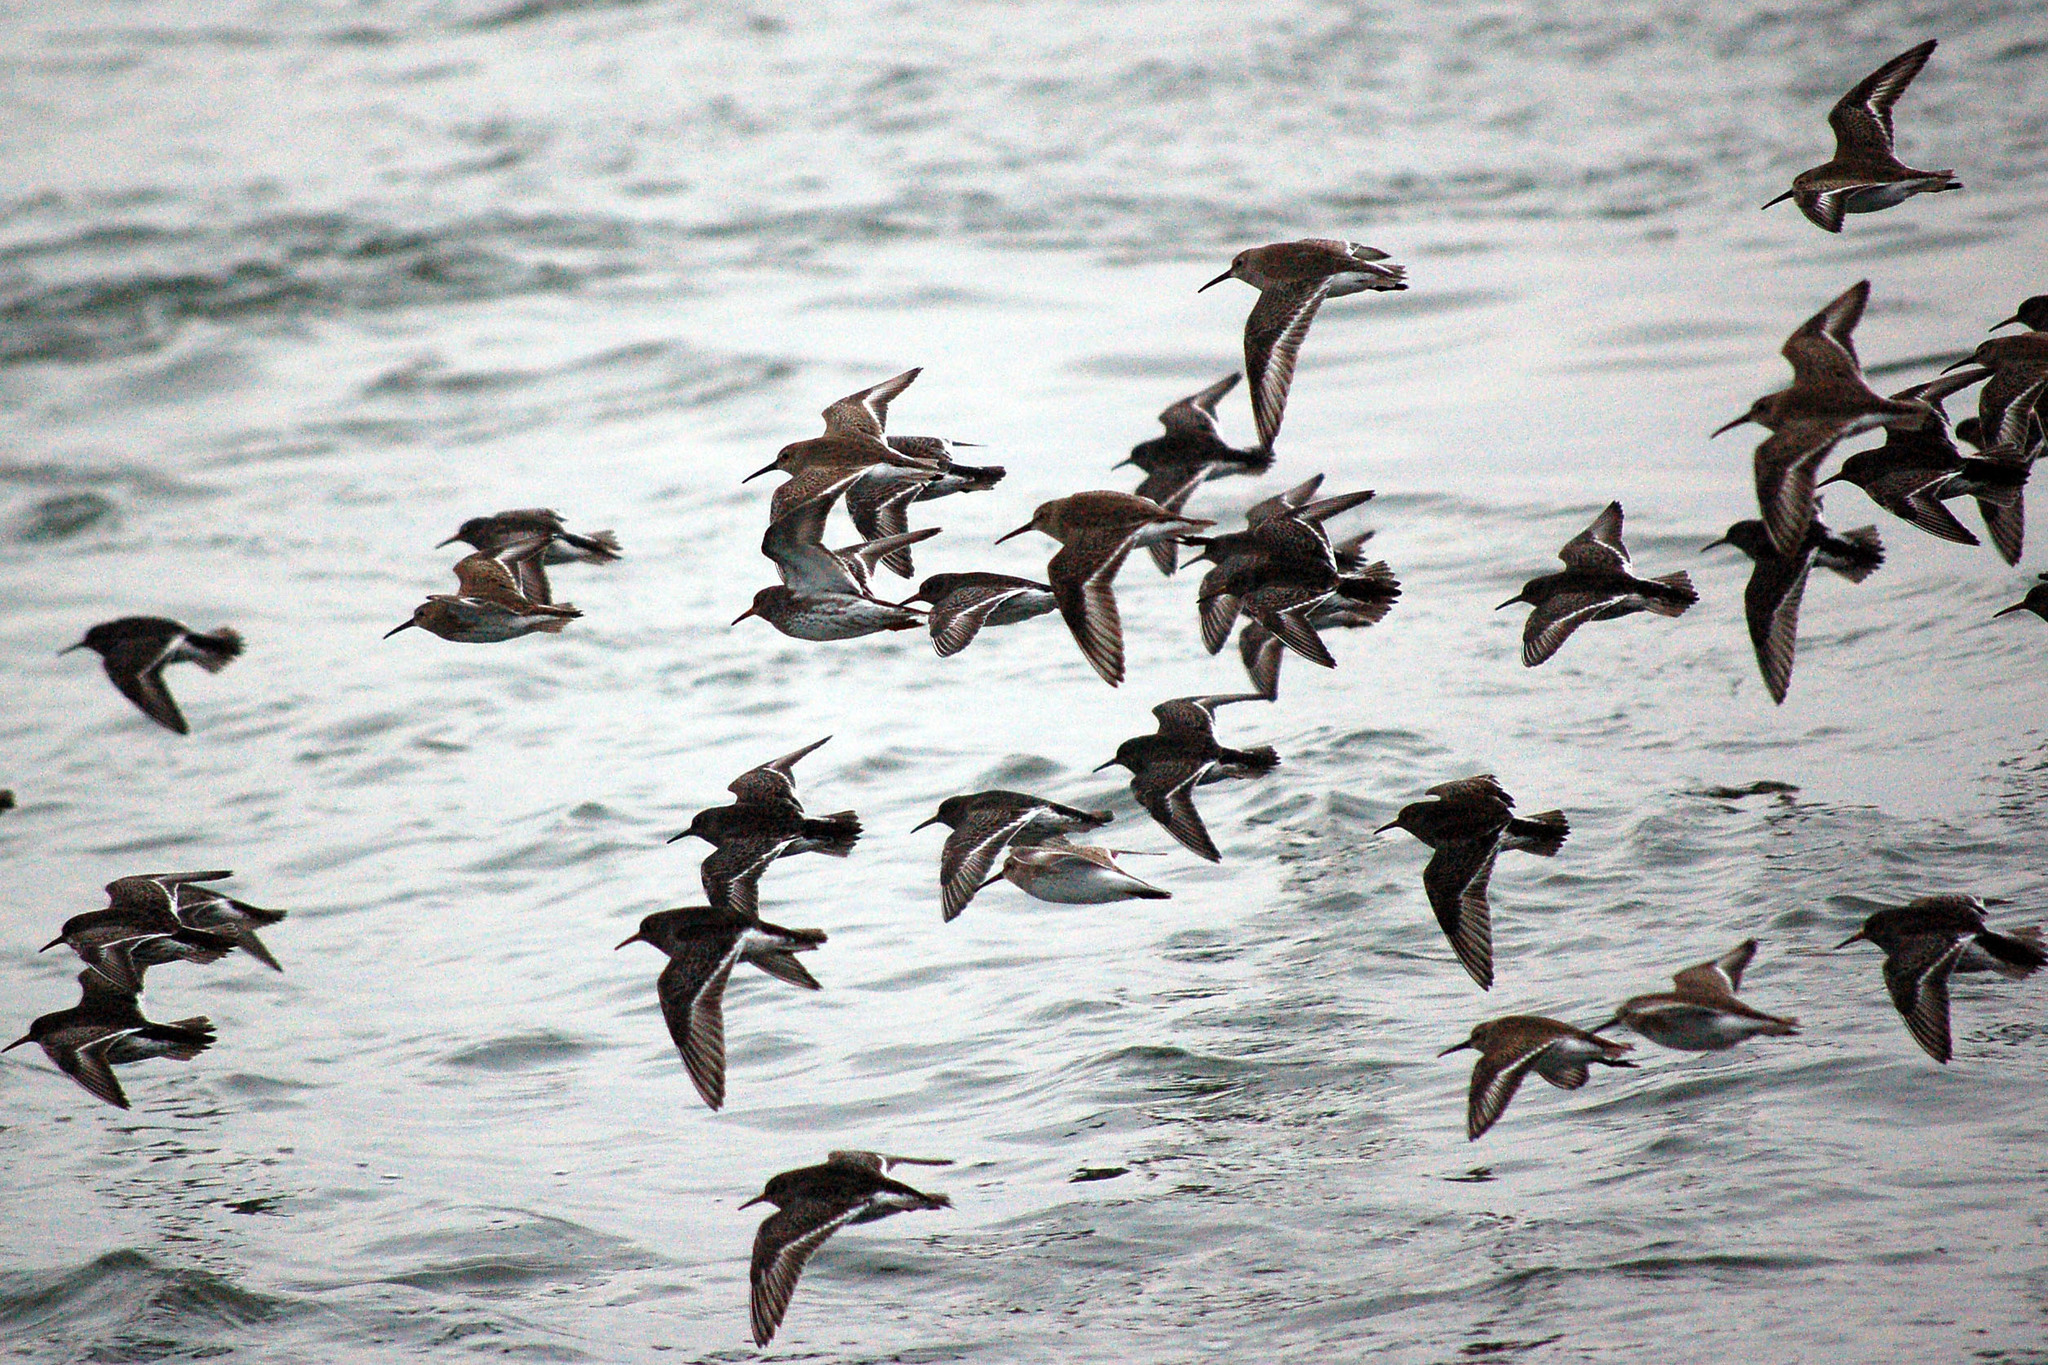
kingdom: Animalia
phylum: Chordata
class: Aves
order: Charadriiformes
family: Scolopacidae
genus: Calidris
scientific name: Calidris maritima
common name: Purple sandpiper
